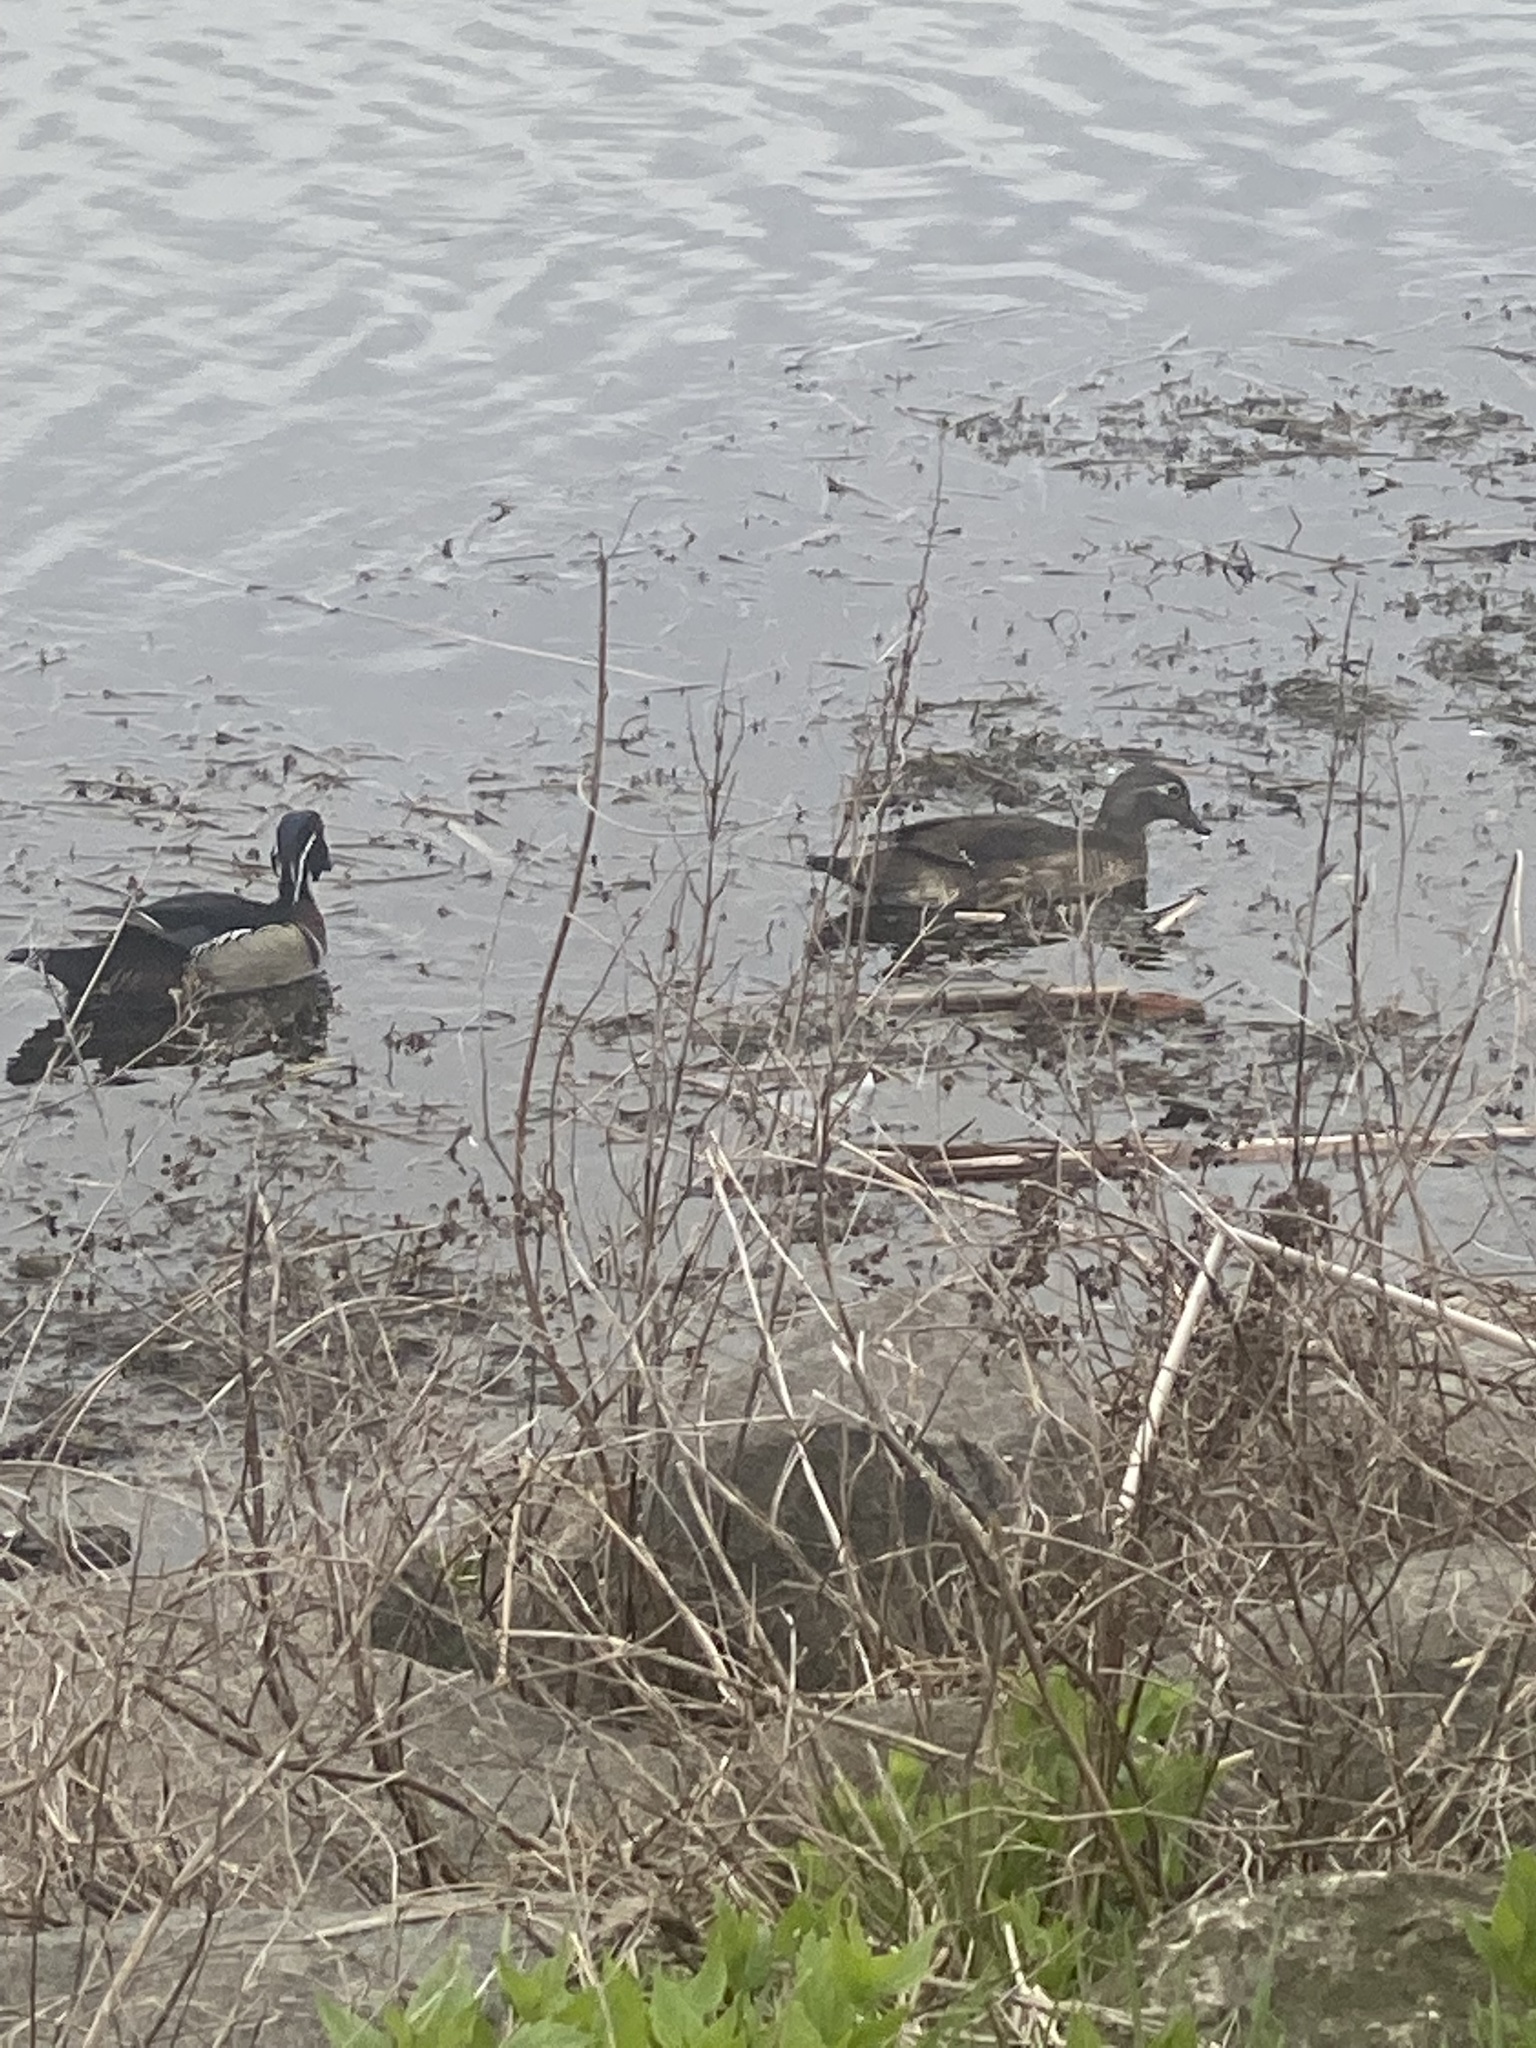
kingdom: Animalia
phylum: Chordata
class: Aves
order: Anseriformes
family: Anatidae
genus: Aix
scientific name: Aix sponsa
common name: Wood duck
